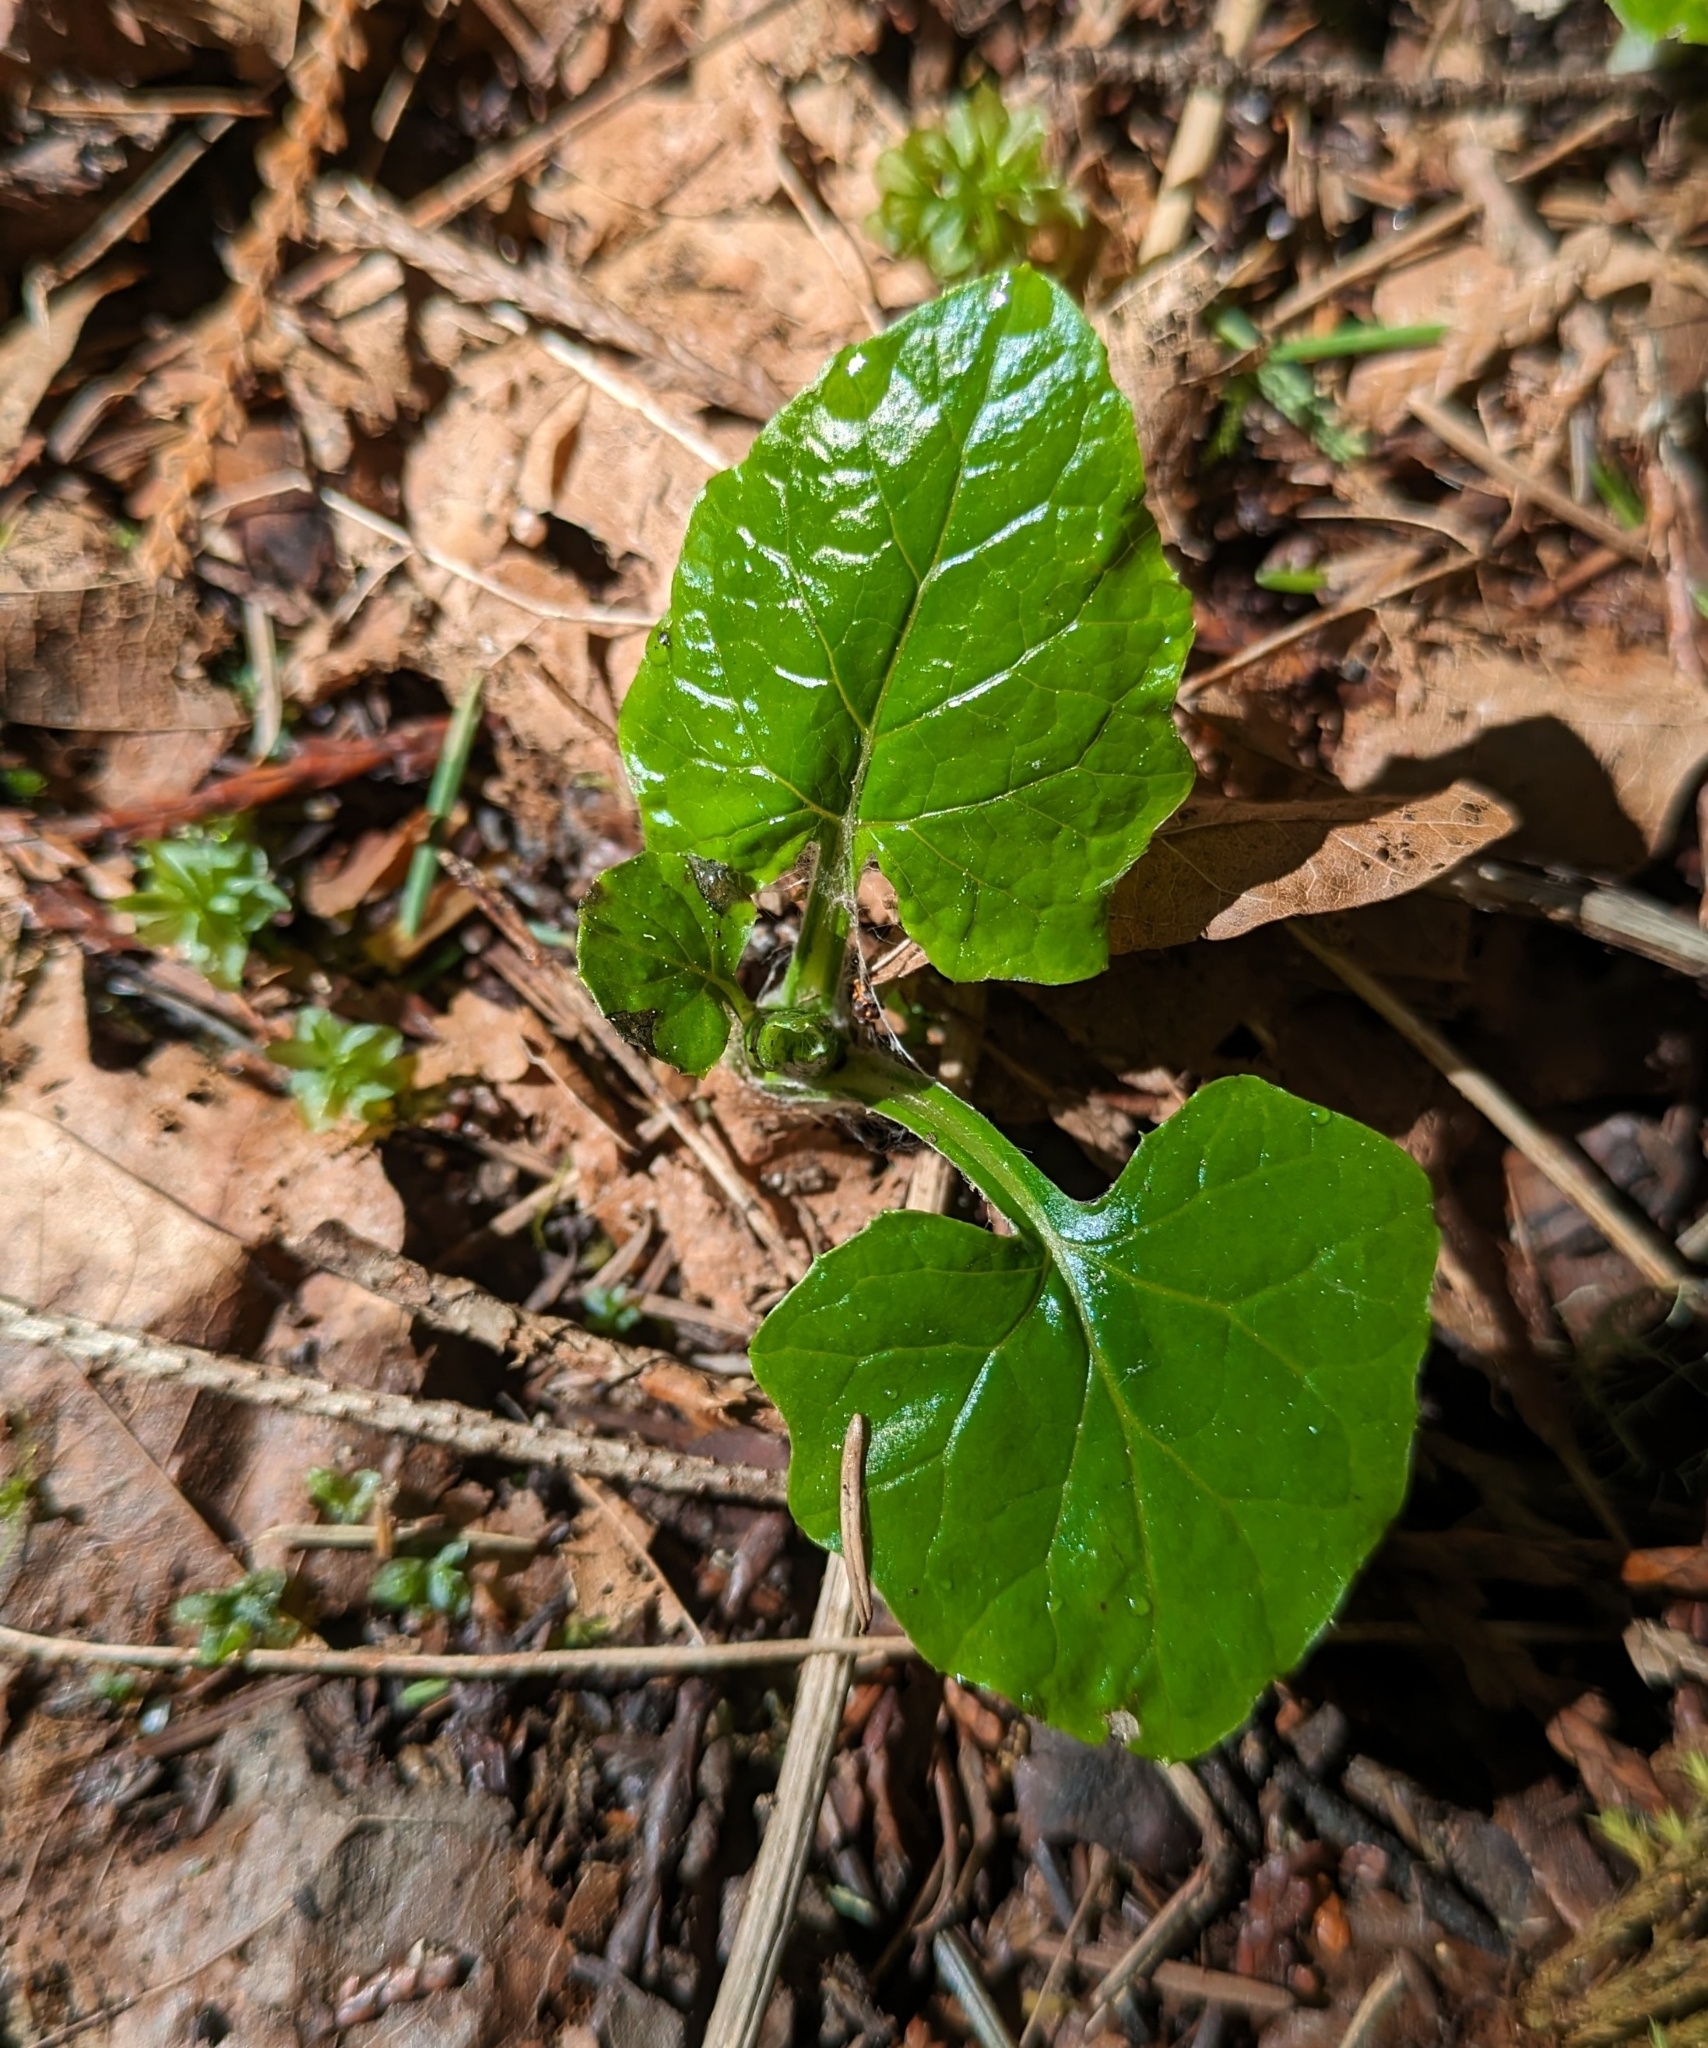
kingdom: Plantae
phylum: Tracheophyta
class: Magnoliopsida
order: Asterales
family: Asteraceae
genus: Adenocaulon
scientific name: Adenocaulon bicolor
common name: Trailplant
